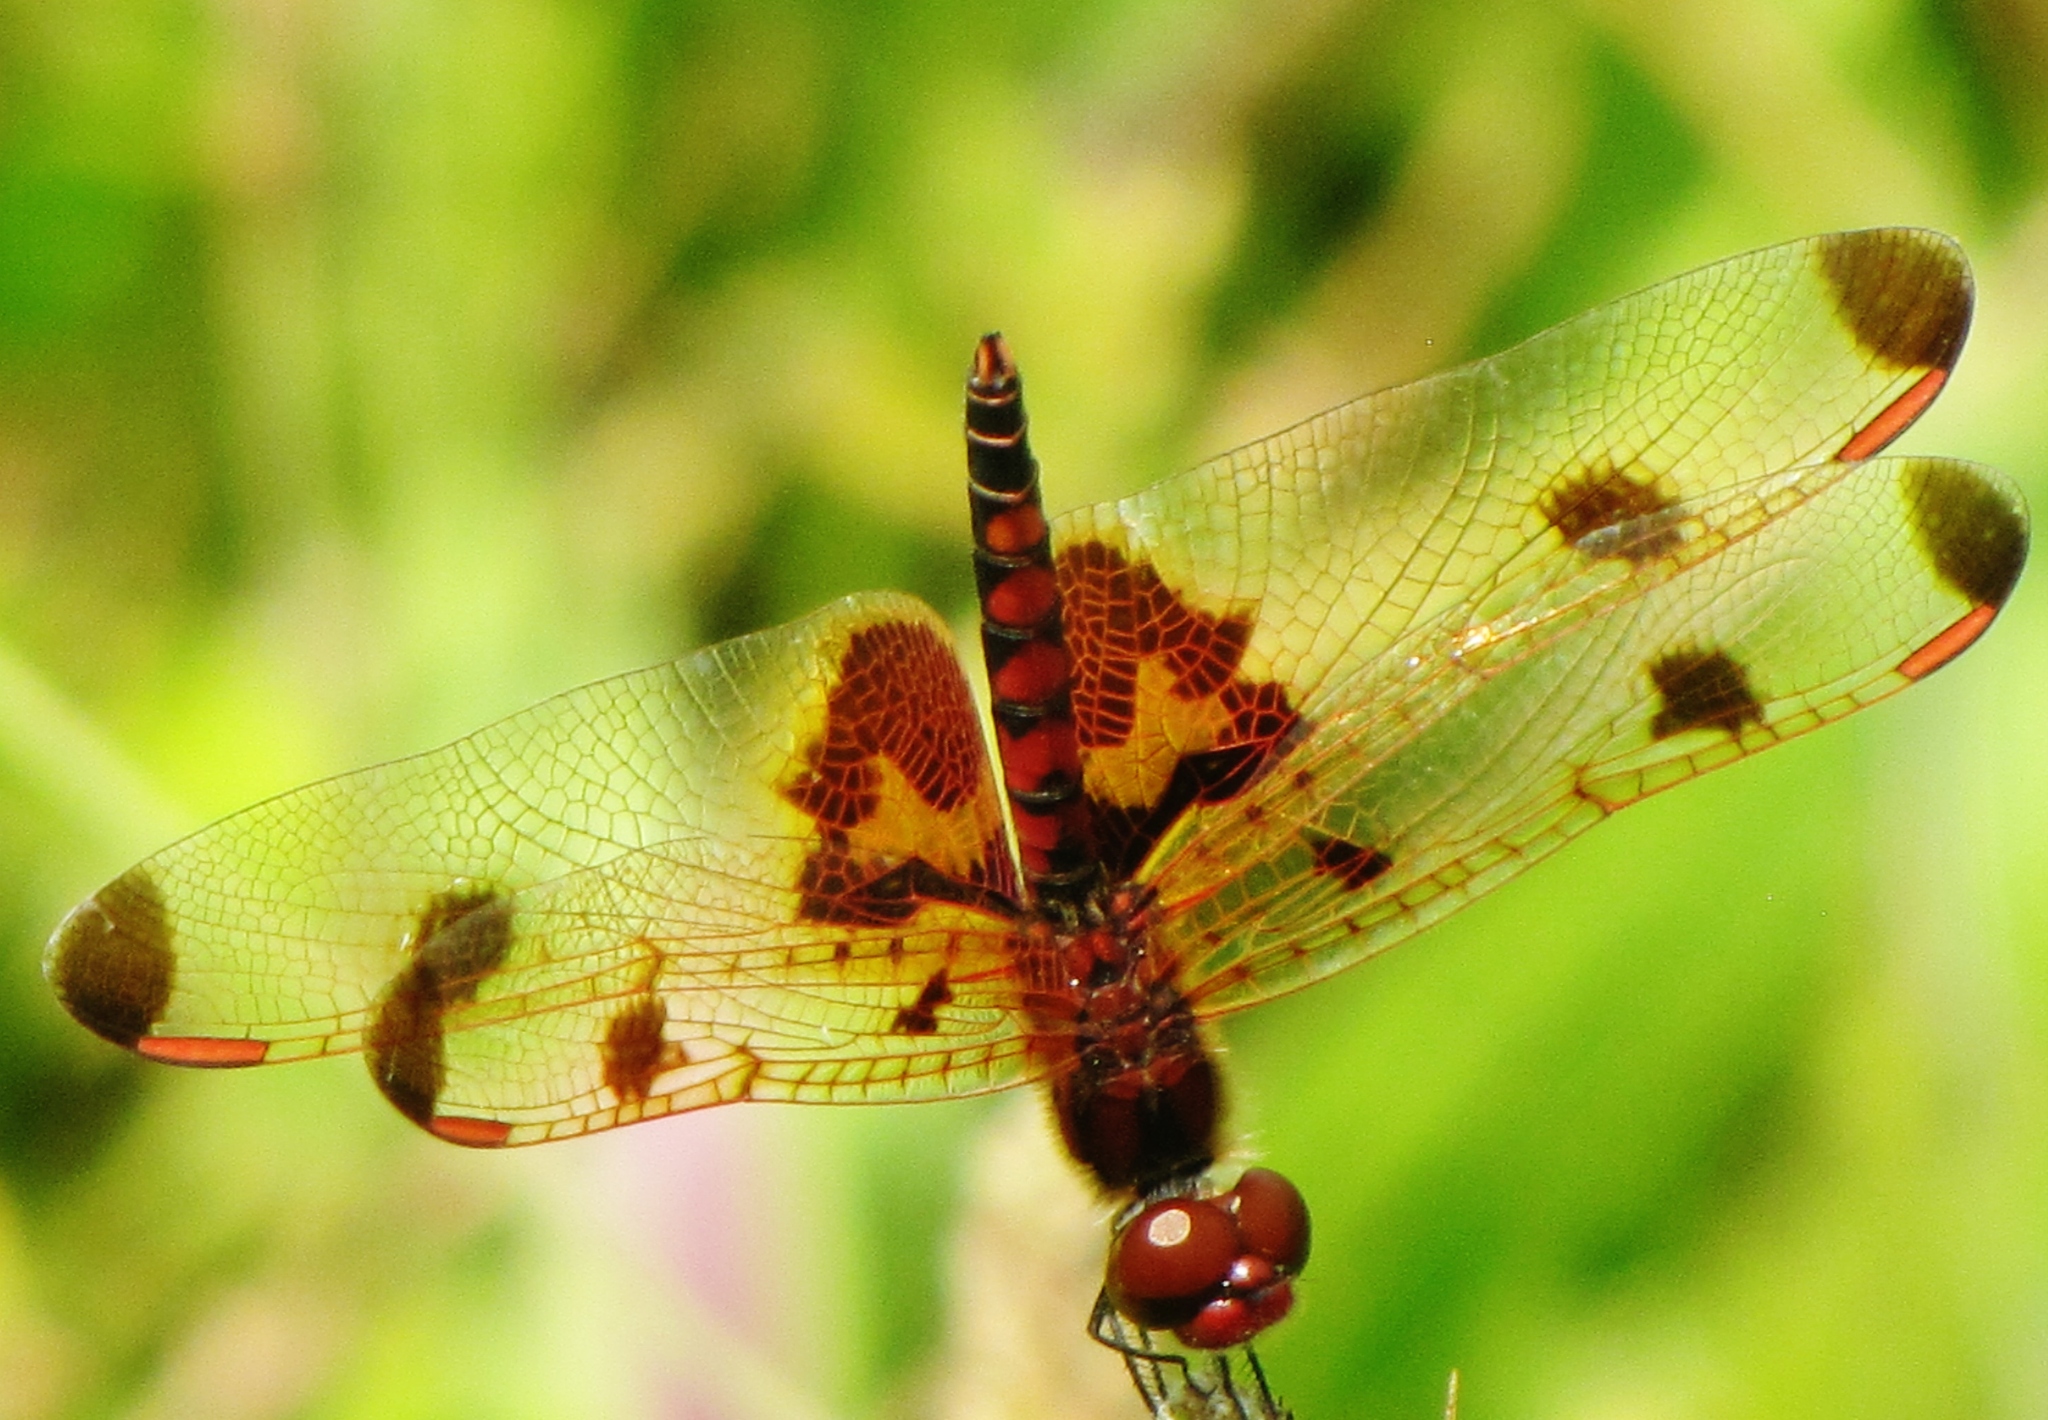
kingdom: Animalia
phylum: Arthropoda
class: Insecta
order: Odonata
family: Libellulidae
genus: Celithemis
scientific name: Celithemis elisa
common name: Calico pennant
